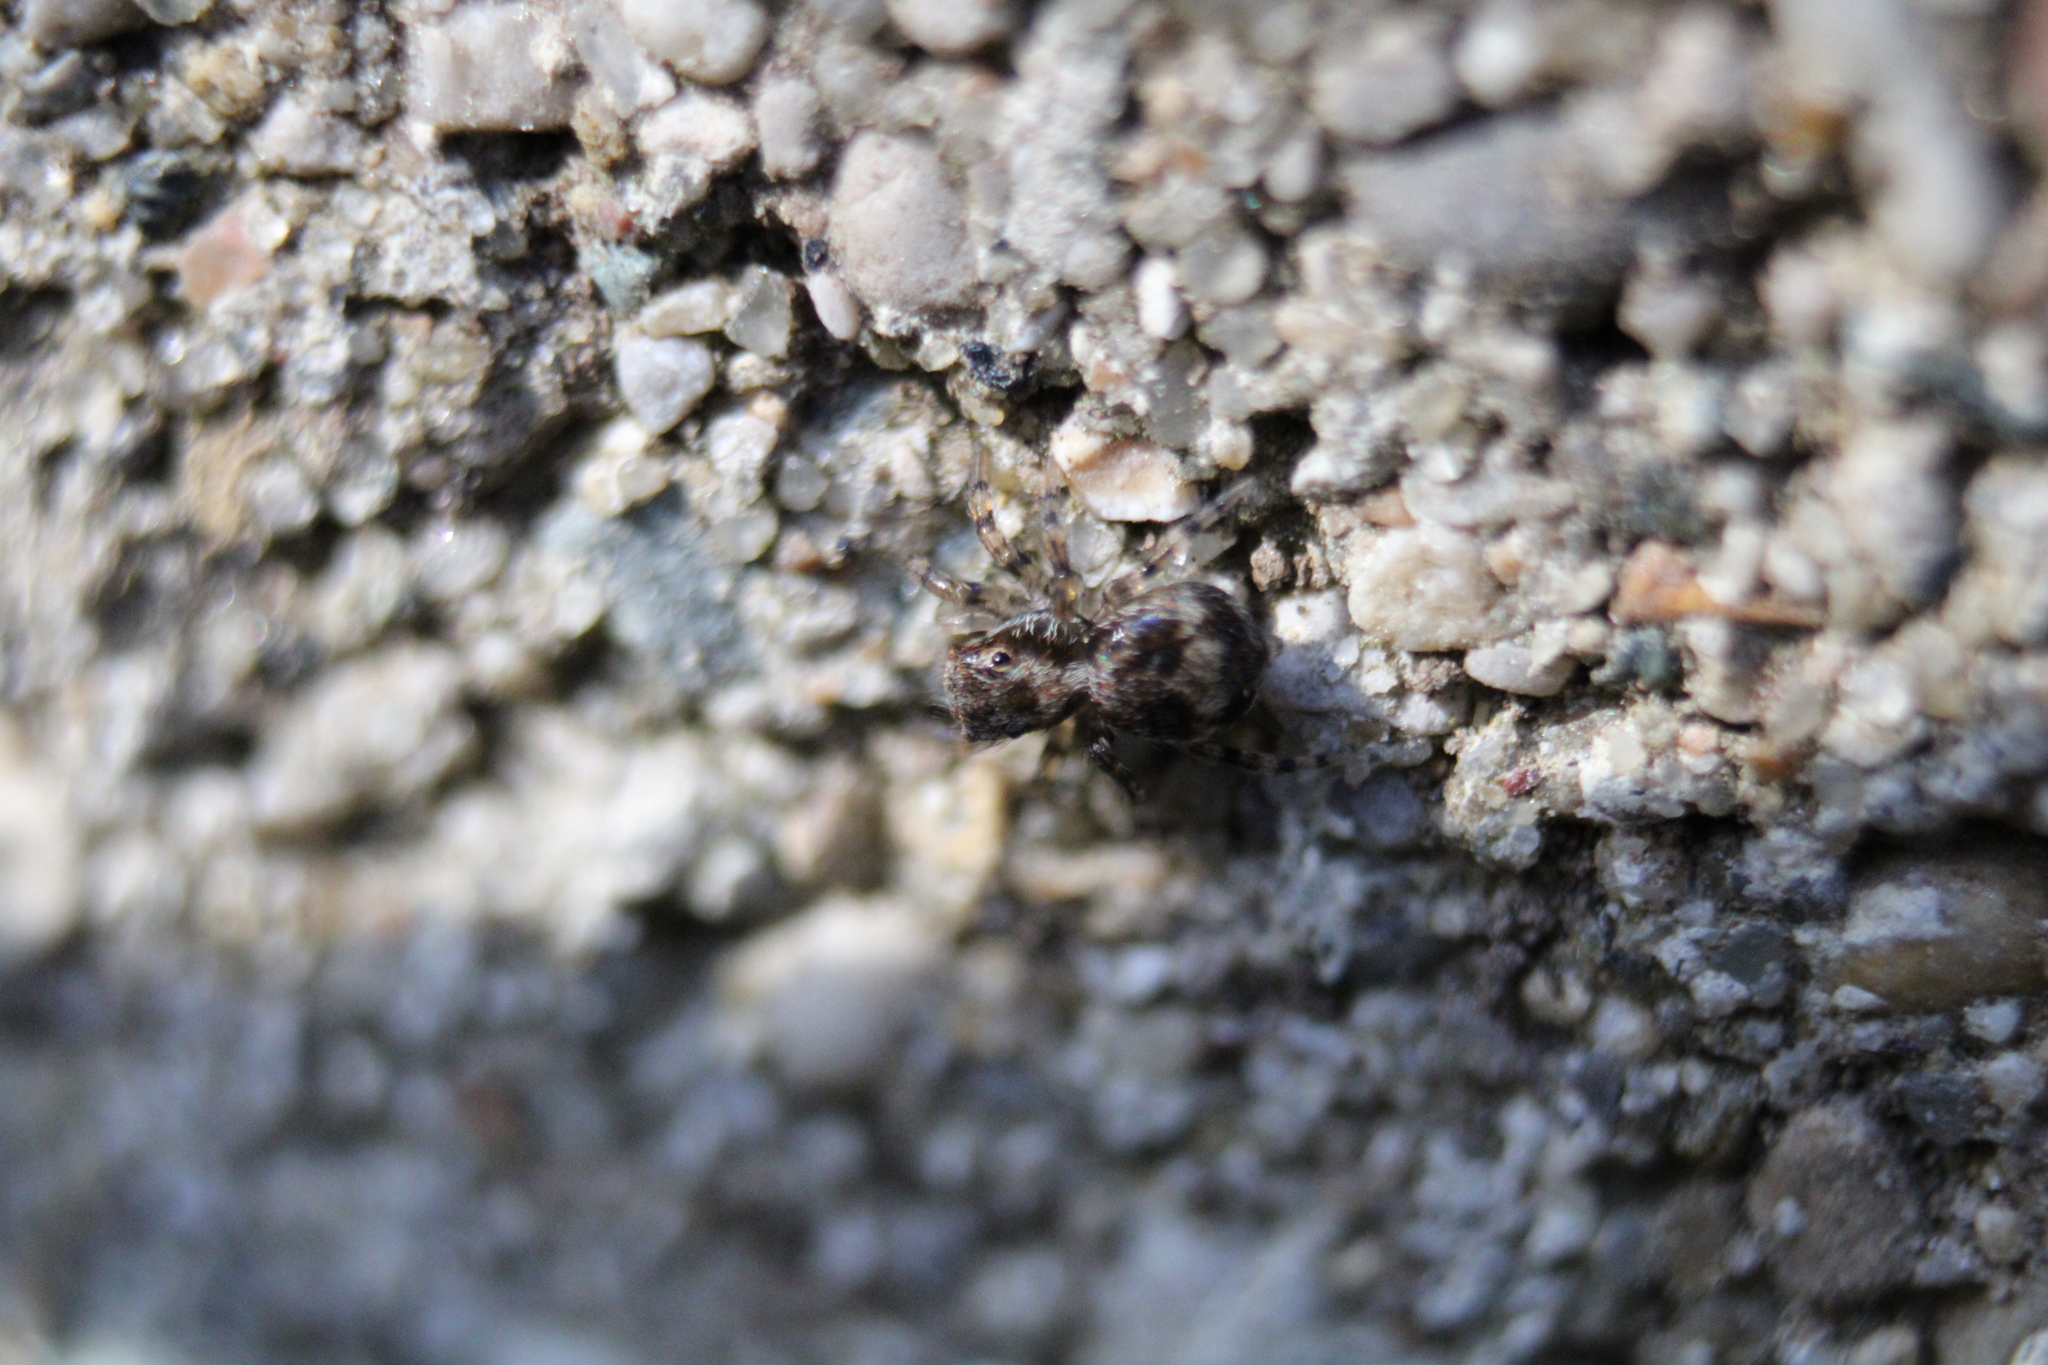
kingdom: Animalia
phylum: Arthropoda
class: Arachnida
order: Araneae
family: Salticidae
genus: Naphrys
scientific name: Naphrys pulex
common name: Flea jumping spider
